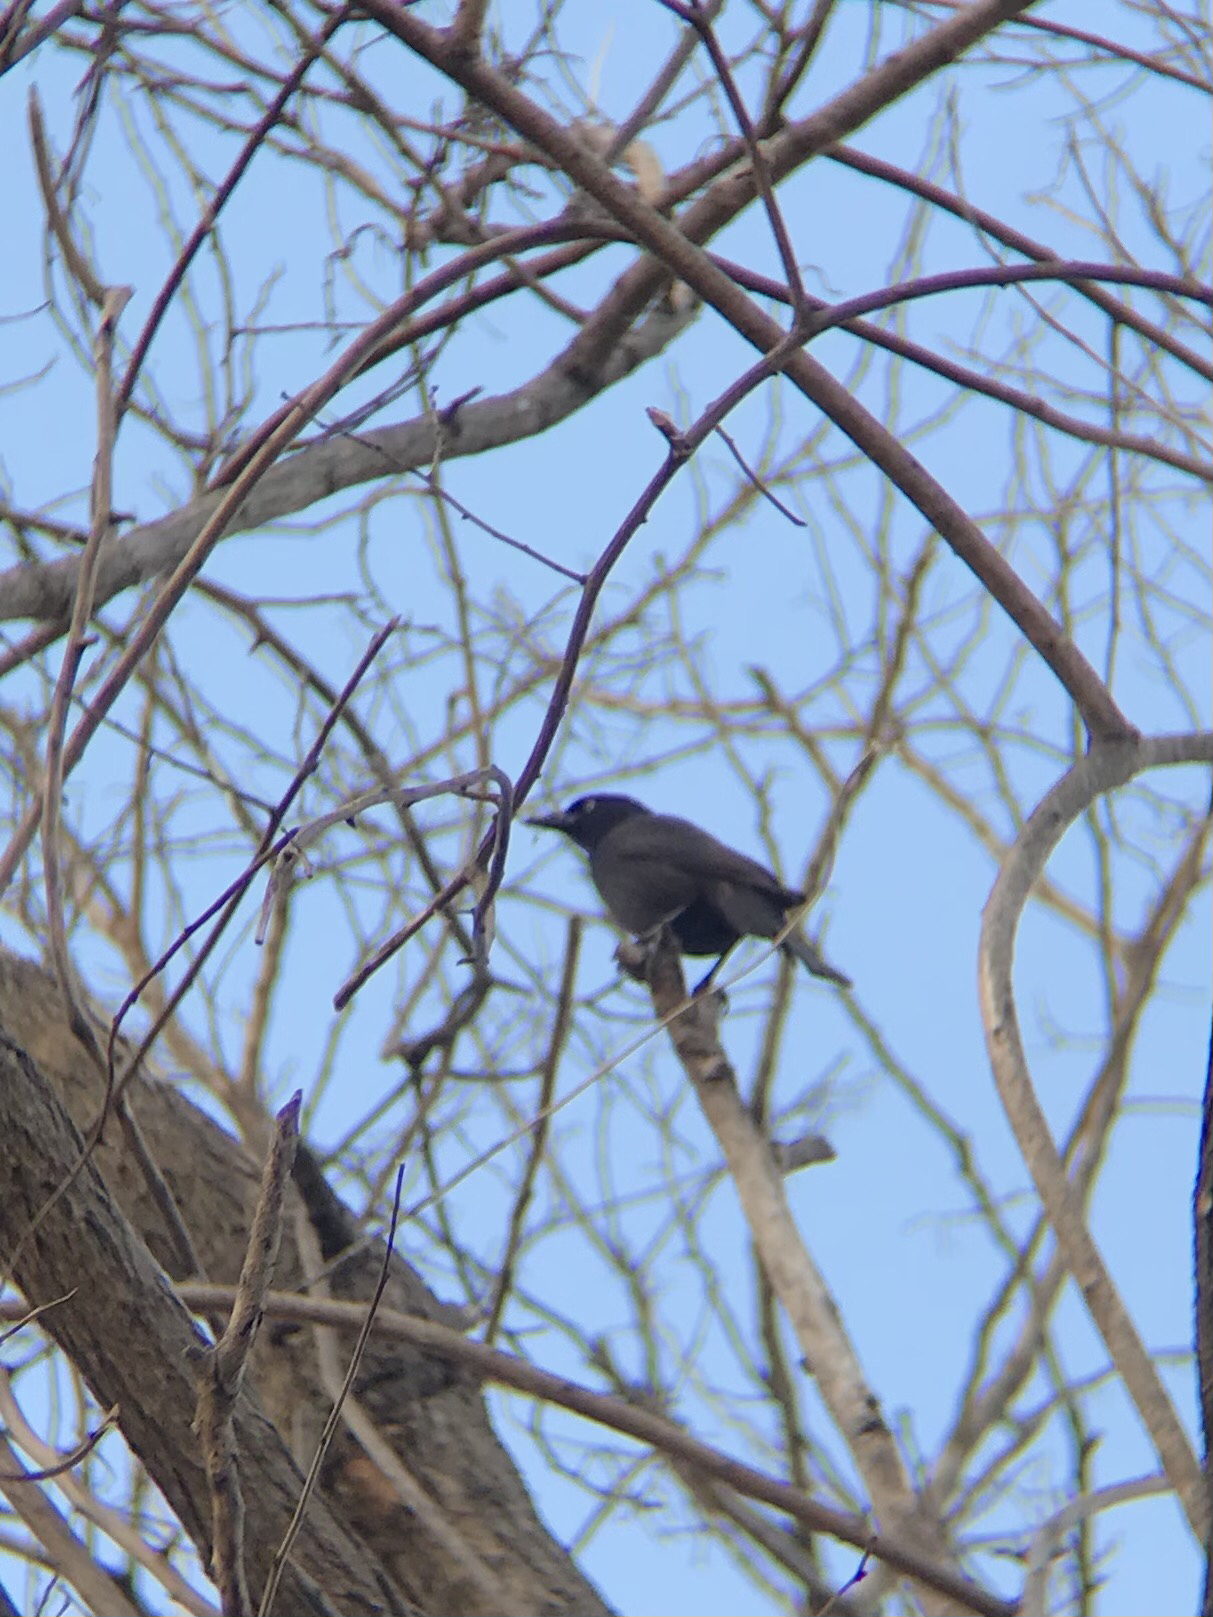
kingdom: Animalia
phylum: Chordata
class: Aves
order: Passeriformes
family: Icteridae
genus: Quiscalus
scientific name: Quiscalus quiscula
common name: Common grackle
